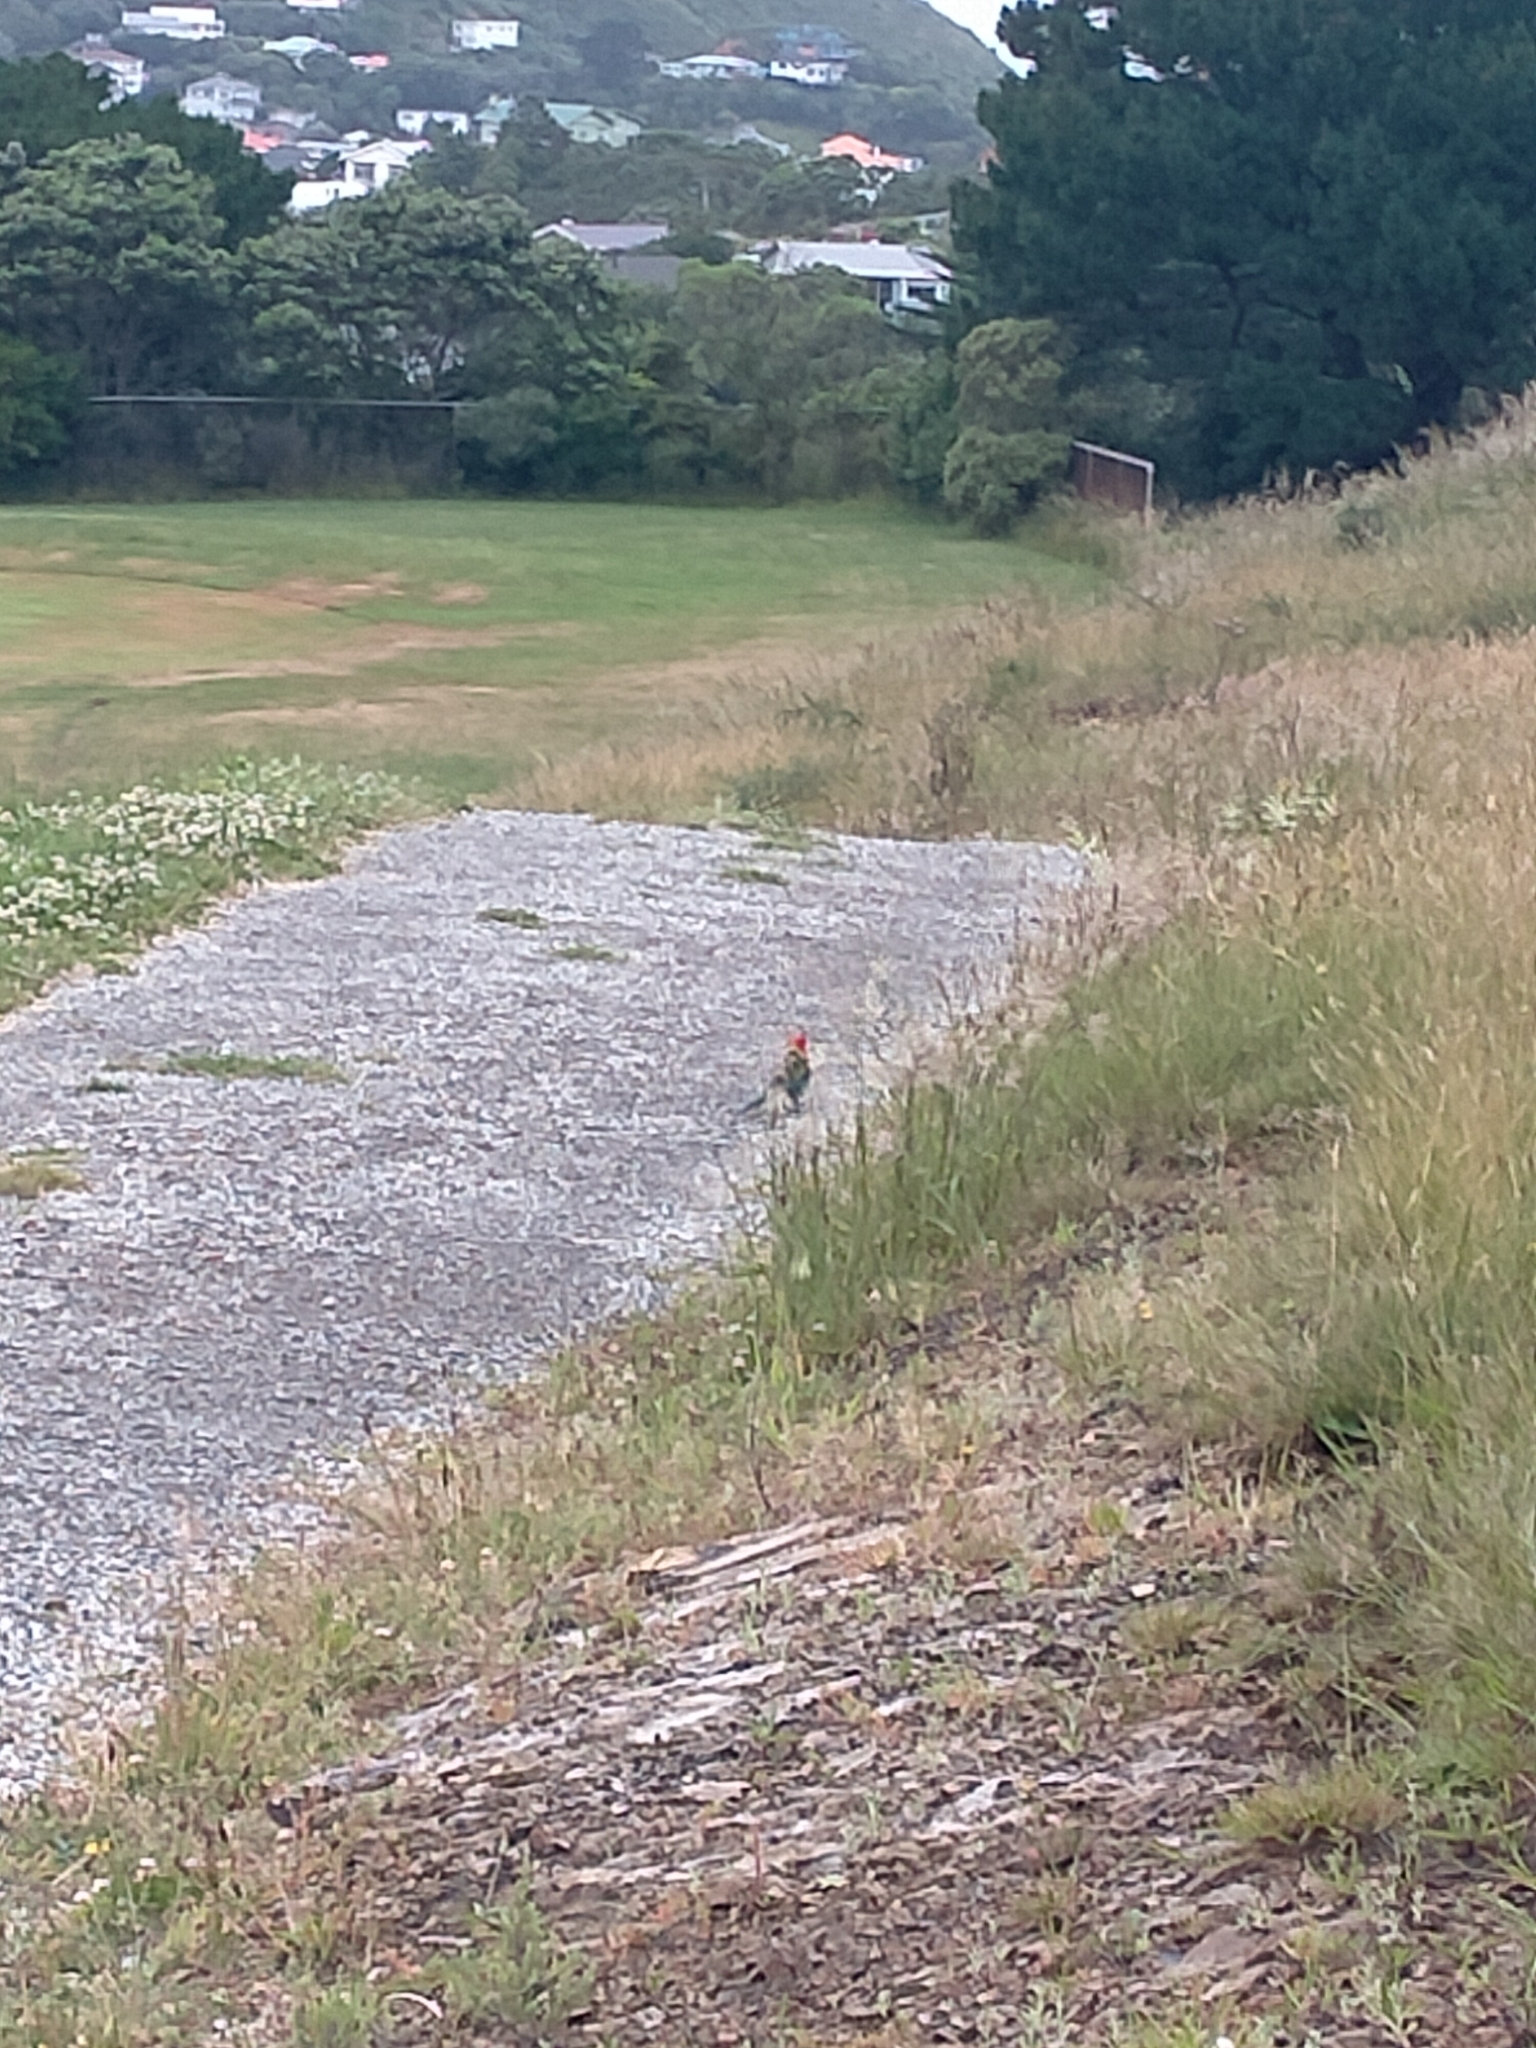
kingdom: Animalia
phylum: Chordata
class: Aves
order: Psittaciformes
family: Psittacidae
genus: Platycercus
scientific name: Platycercus eximius
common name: Eastern rosella
